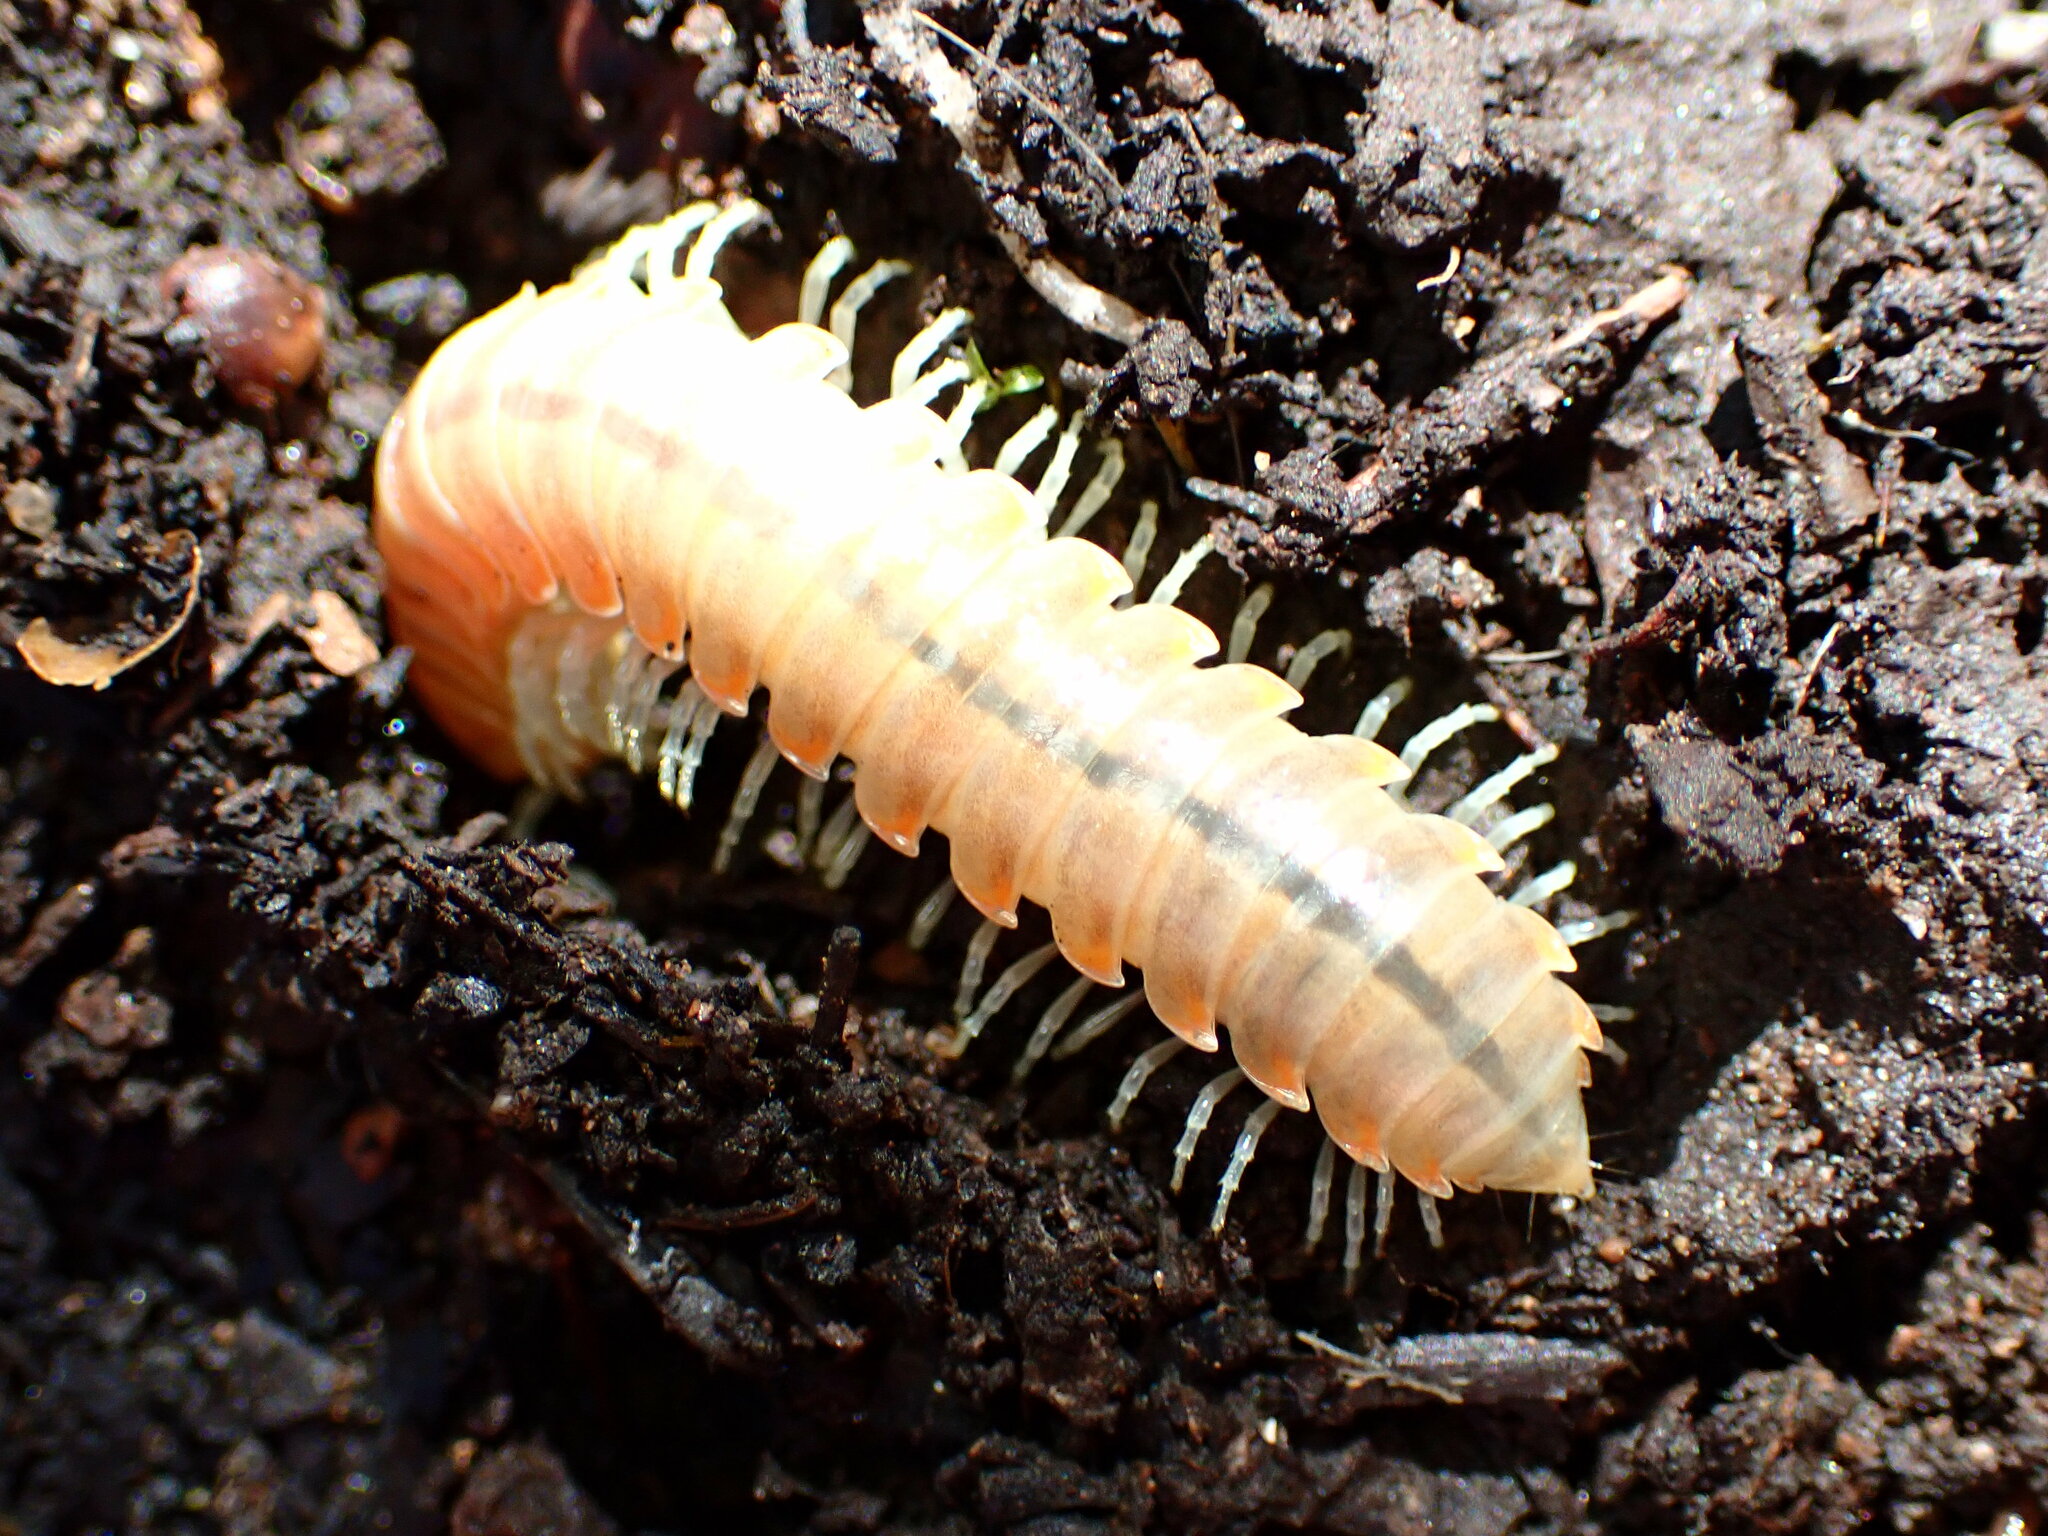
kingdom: Animalia
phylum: Arthropoda
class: Diplopoda
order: Polydesmida
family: Xystodesmidae
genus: Xystocheir
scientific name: Xystocheir dissecta
